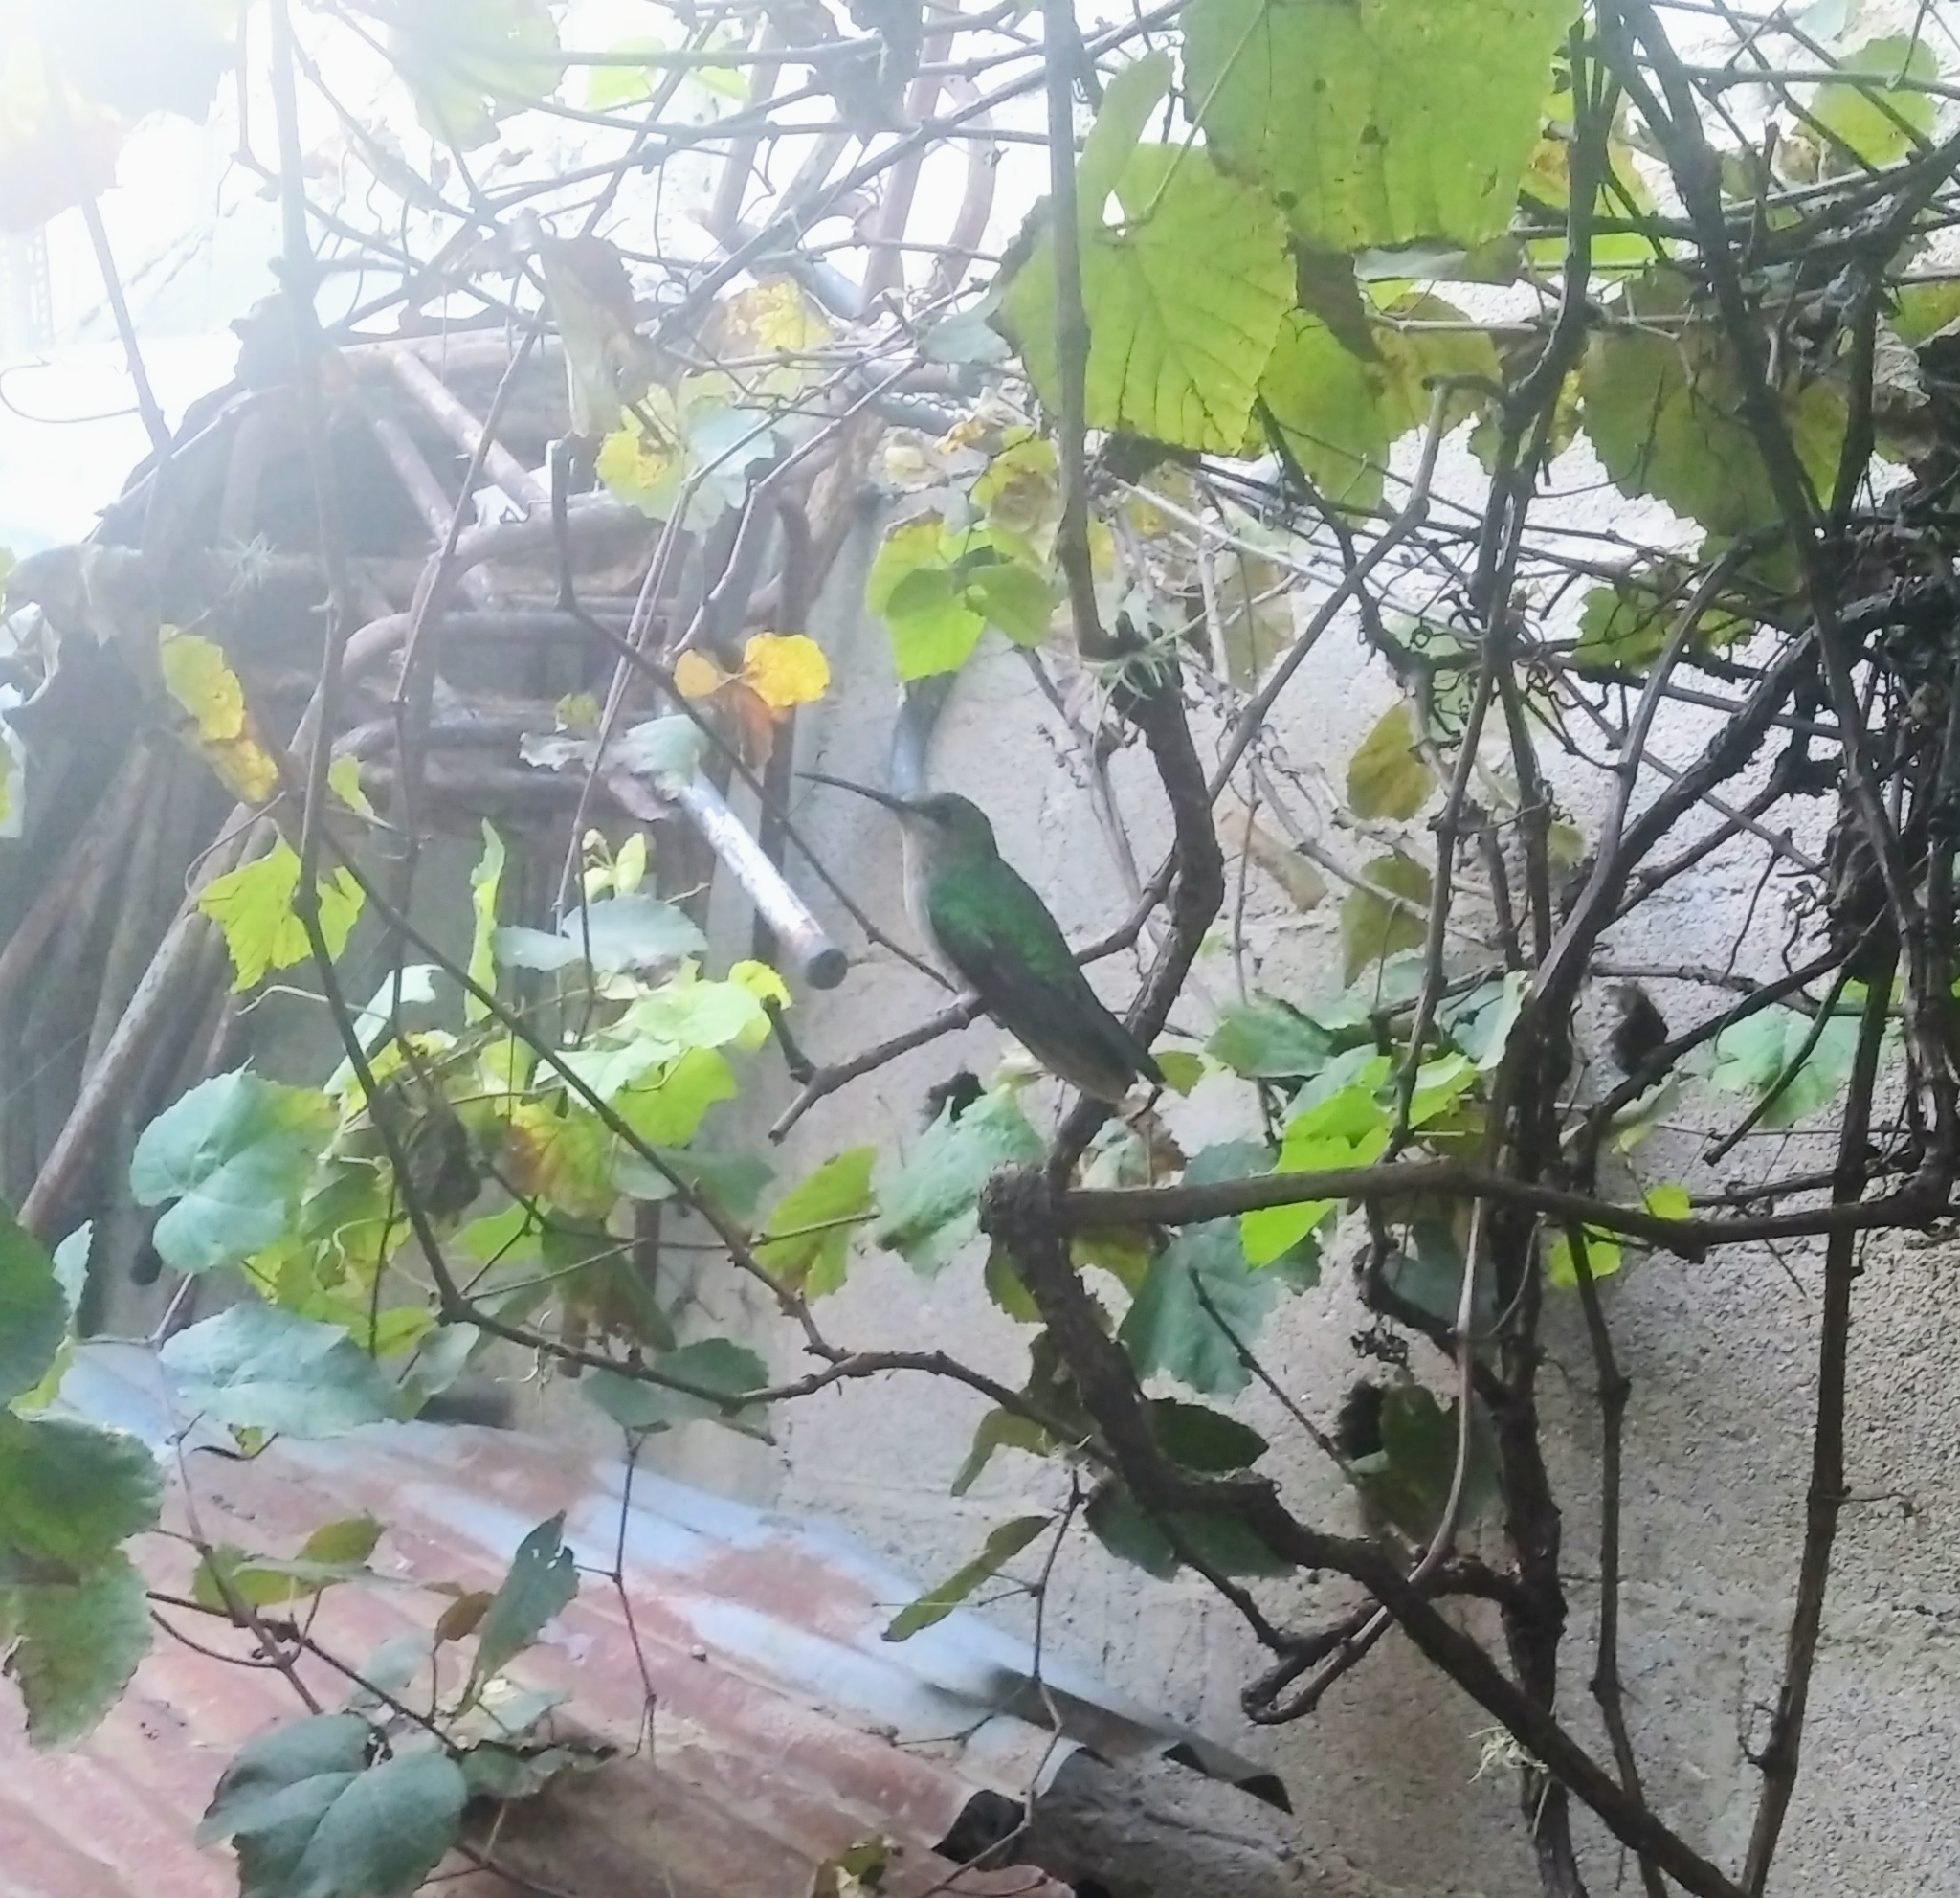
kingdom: Animalia
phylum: Chordata
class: Aves
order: Apodiformes
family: Trochilidae
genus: Chionomesa
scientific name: Chionomesa fimbriata
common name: Glittering-throated emerald
